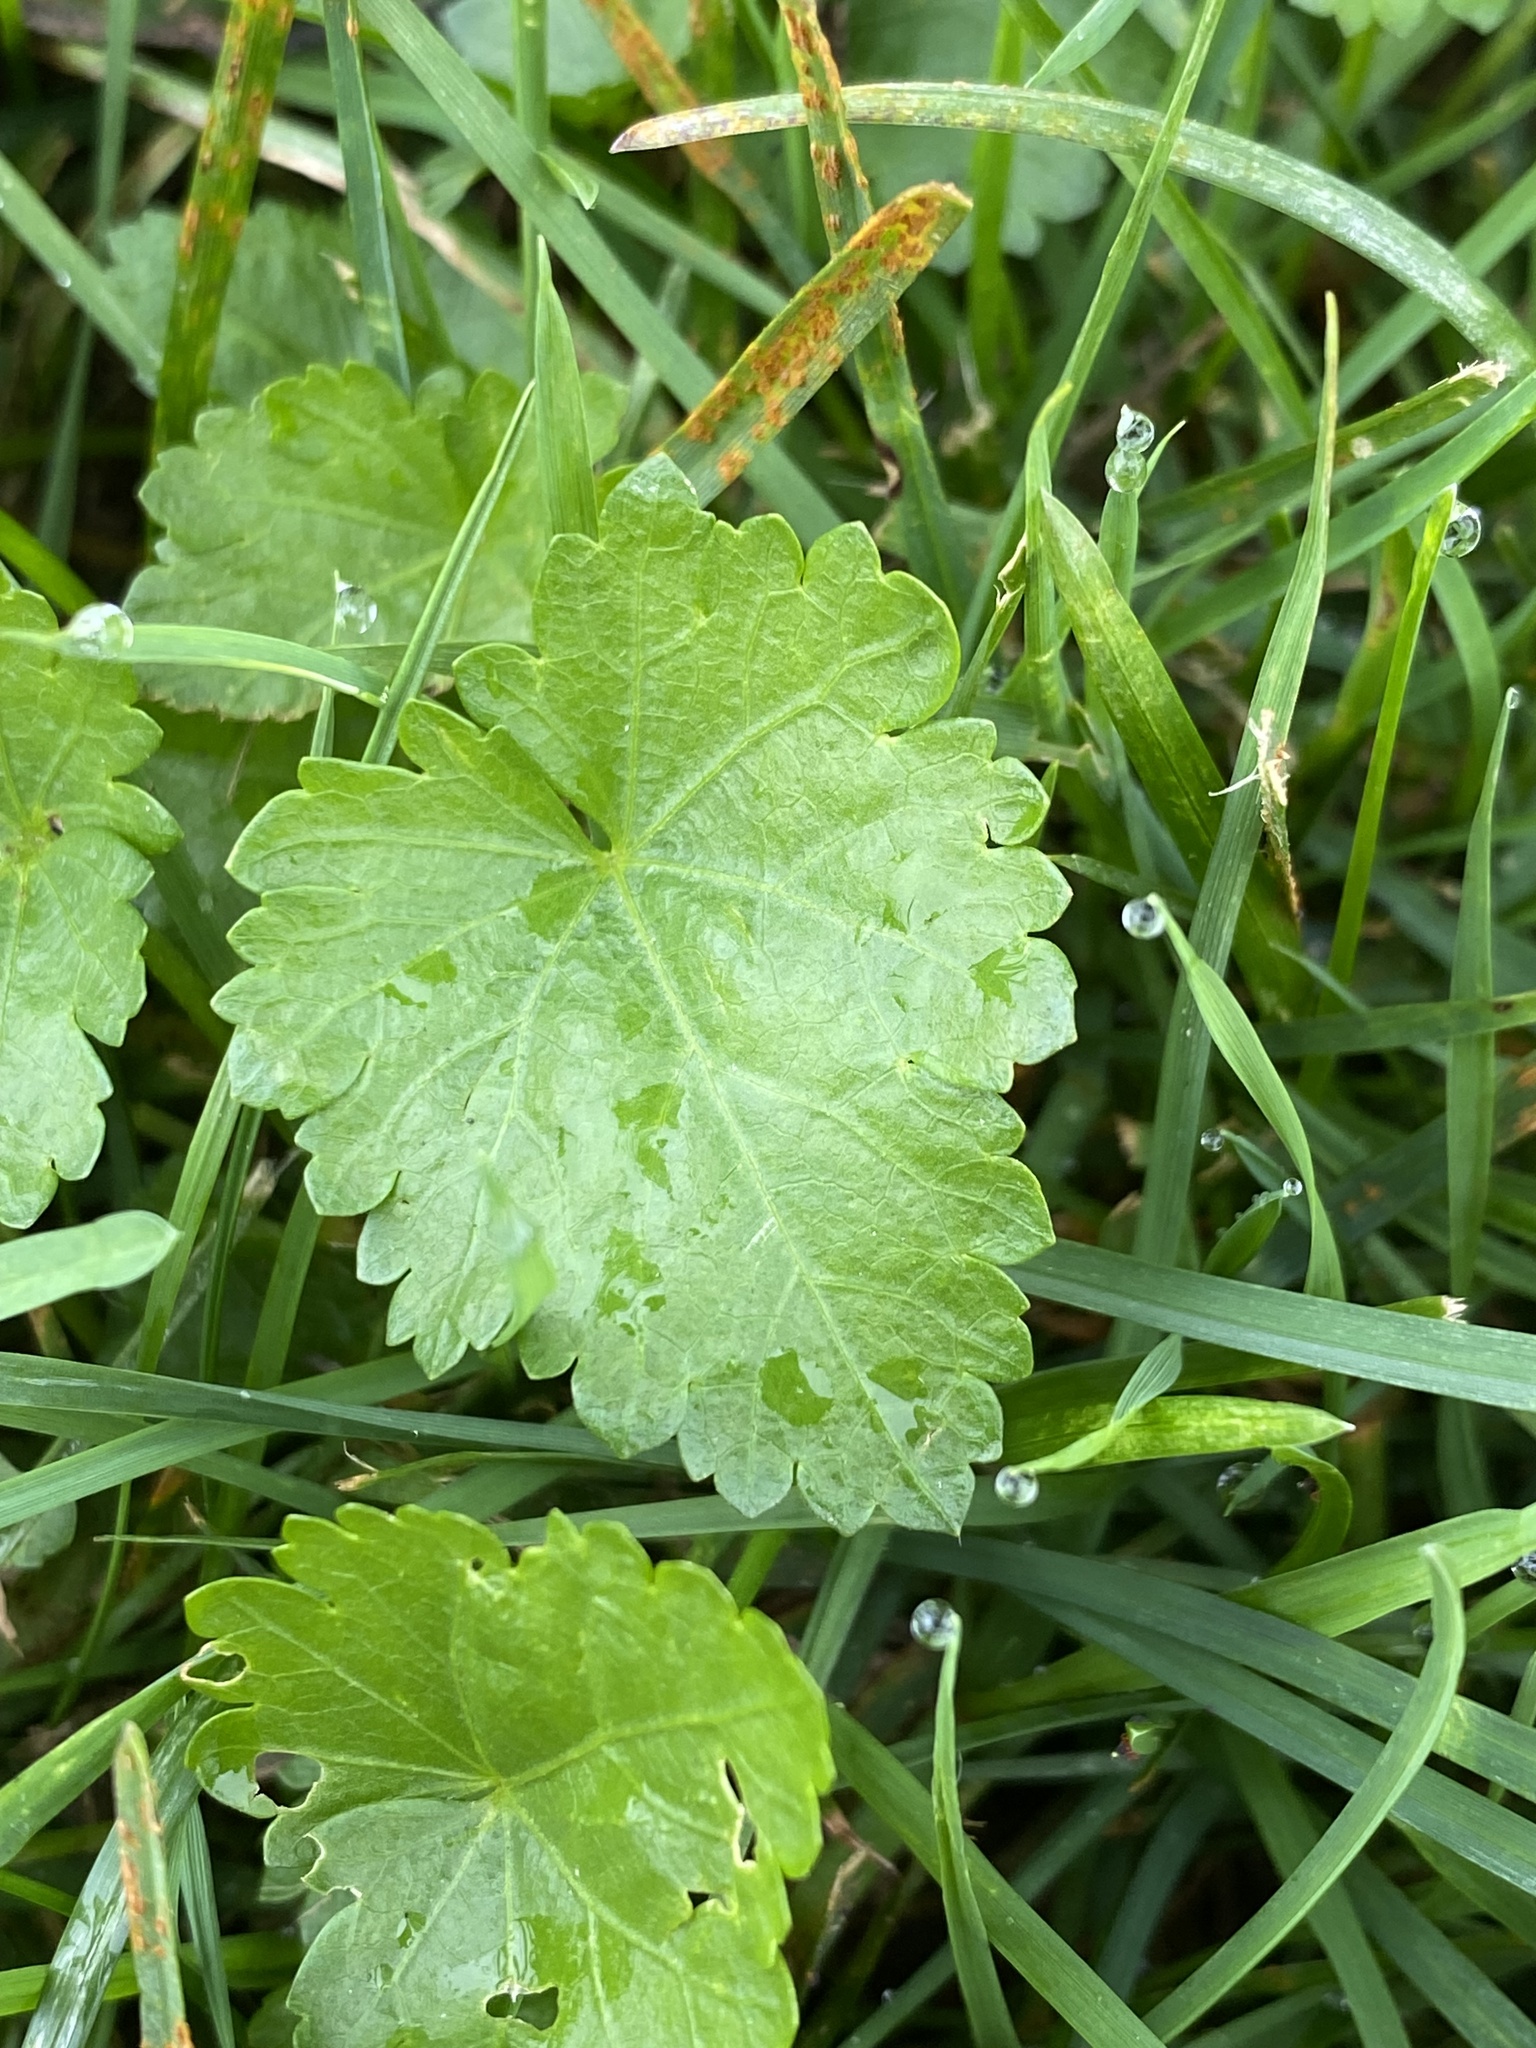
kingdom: Plantae
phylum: Tracheophyta
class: Magnoliopsida
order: Malvales
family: Malvaceae
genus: Modiola
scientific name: Modiola caroliniana
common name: Carolina bristlemallow
